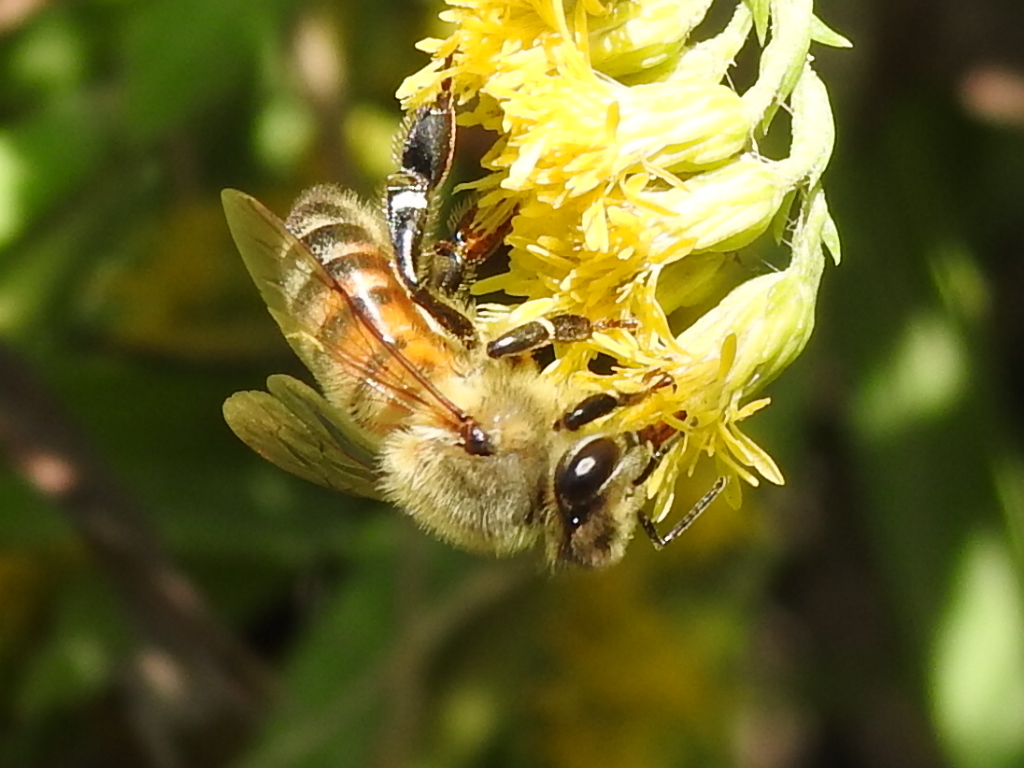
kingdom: Animalia
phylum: Arthropoda
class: Insecta
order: Hymenoptera
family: Apidae
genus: Apis
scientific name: Apis mellifera
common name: Honey bee
